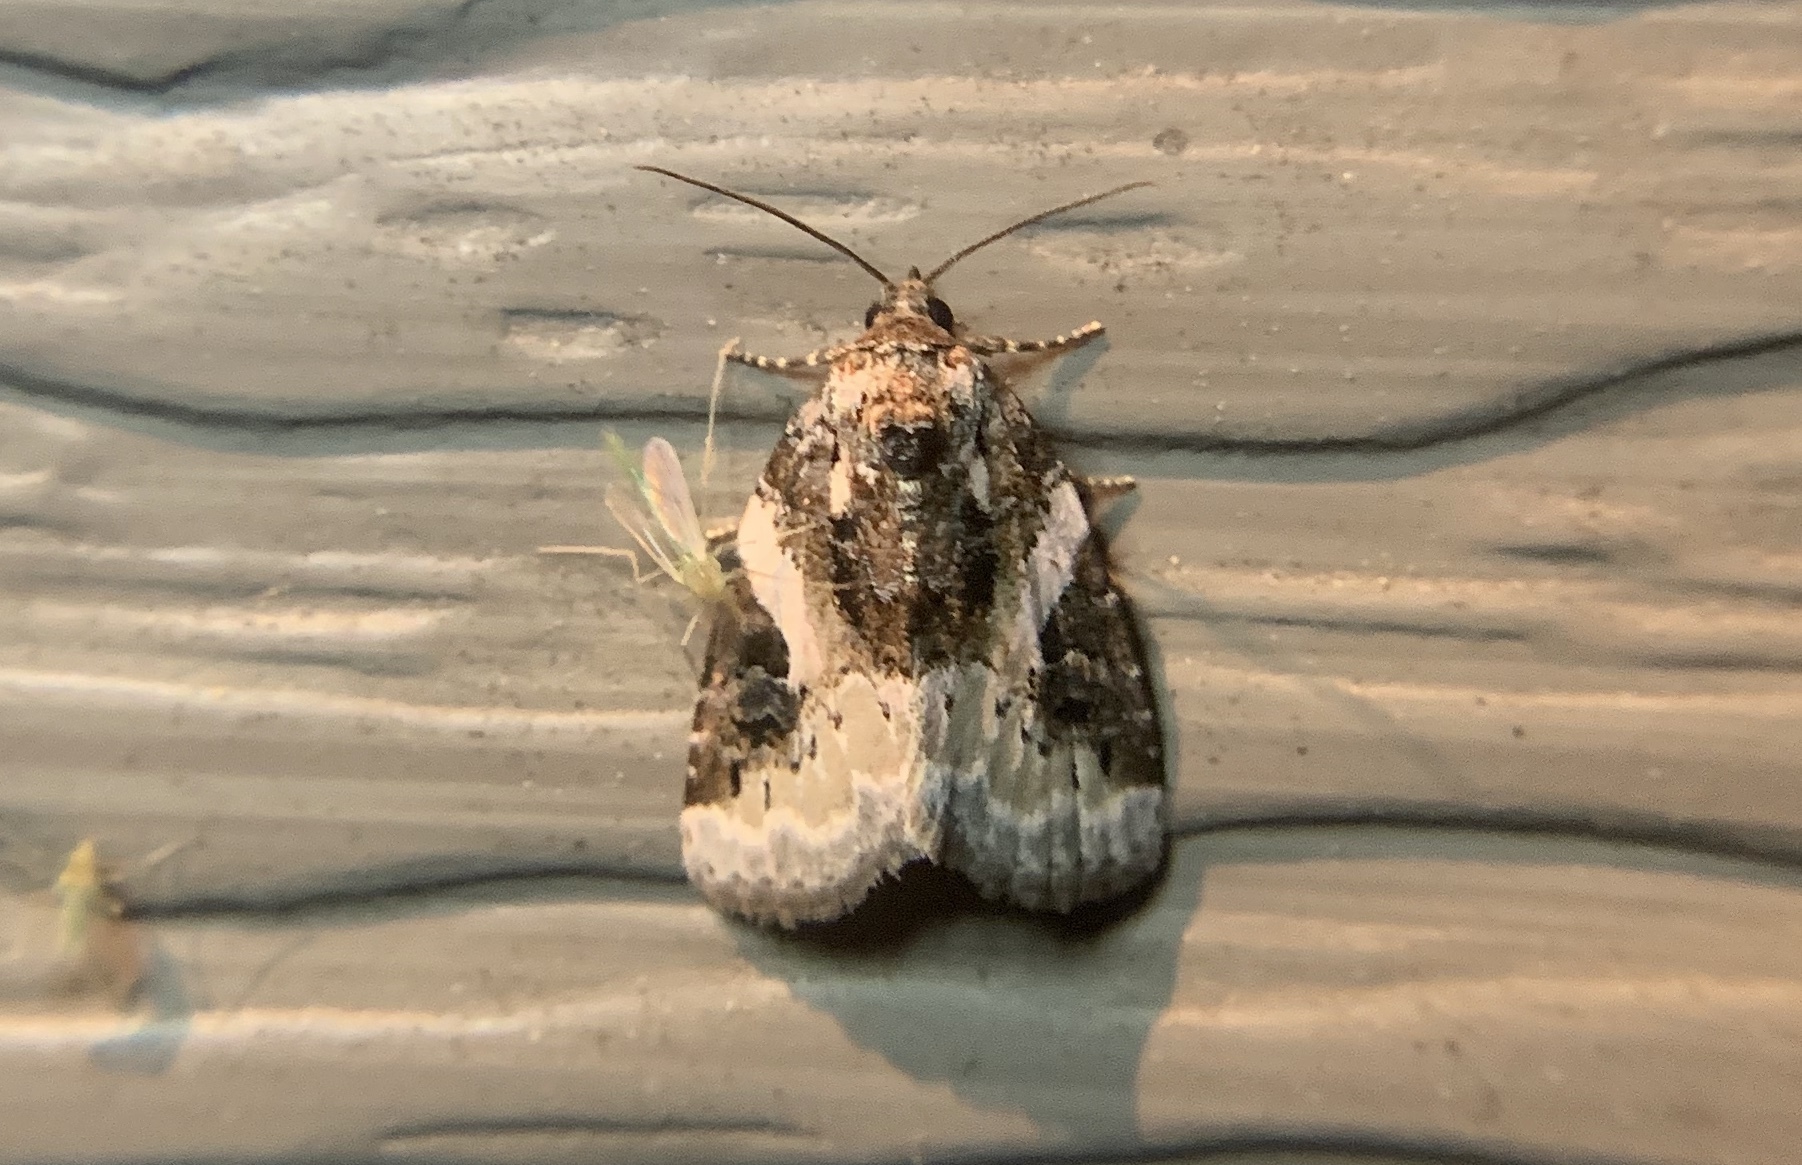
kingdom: Animalia
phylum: Arthropoda
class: Insecta
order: Lepidoptera
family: Noctuidae
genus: Pseudeustrotia
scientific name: Pseudeustrotia carneola
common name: Pink-barred lithacodia moth
